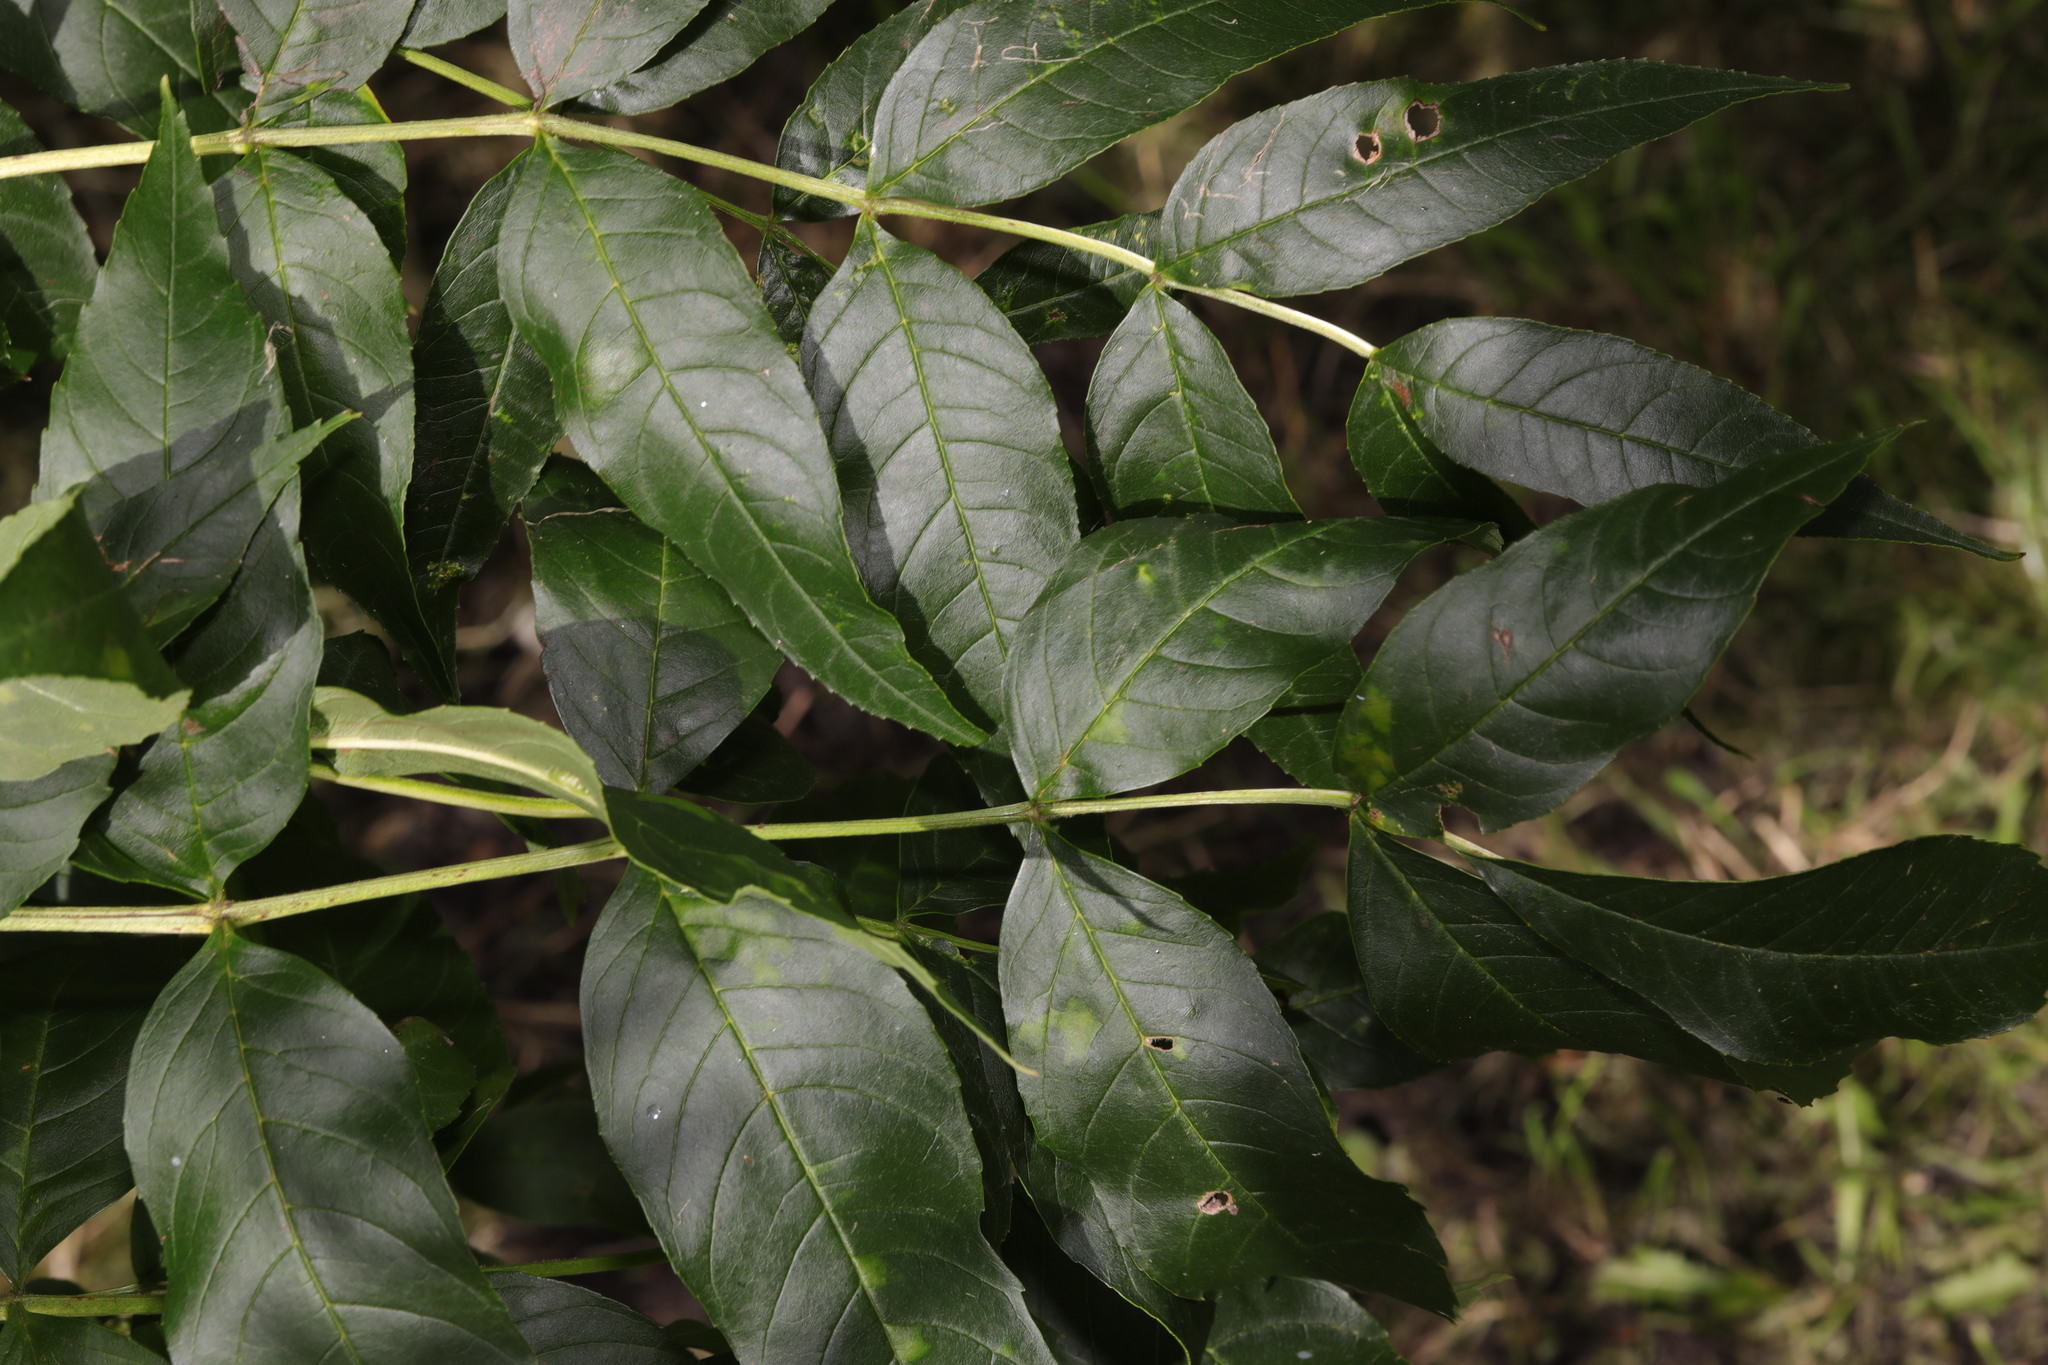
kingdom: Plantae
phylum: Tracheophyta
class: Magnoliopsida
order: Lamiales
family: Oleaceae
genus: Fraxinus
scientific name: Fraxinus excelsior
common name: European ash
